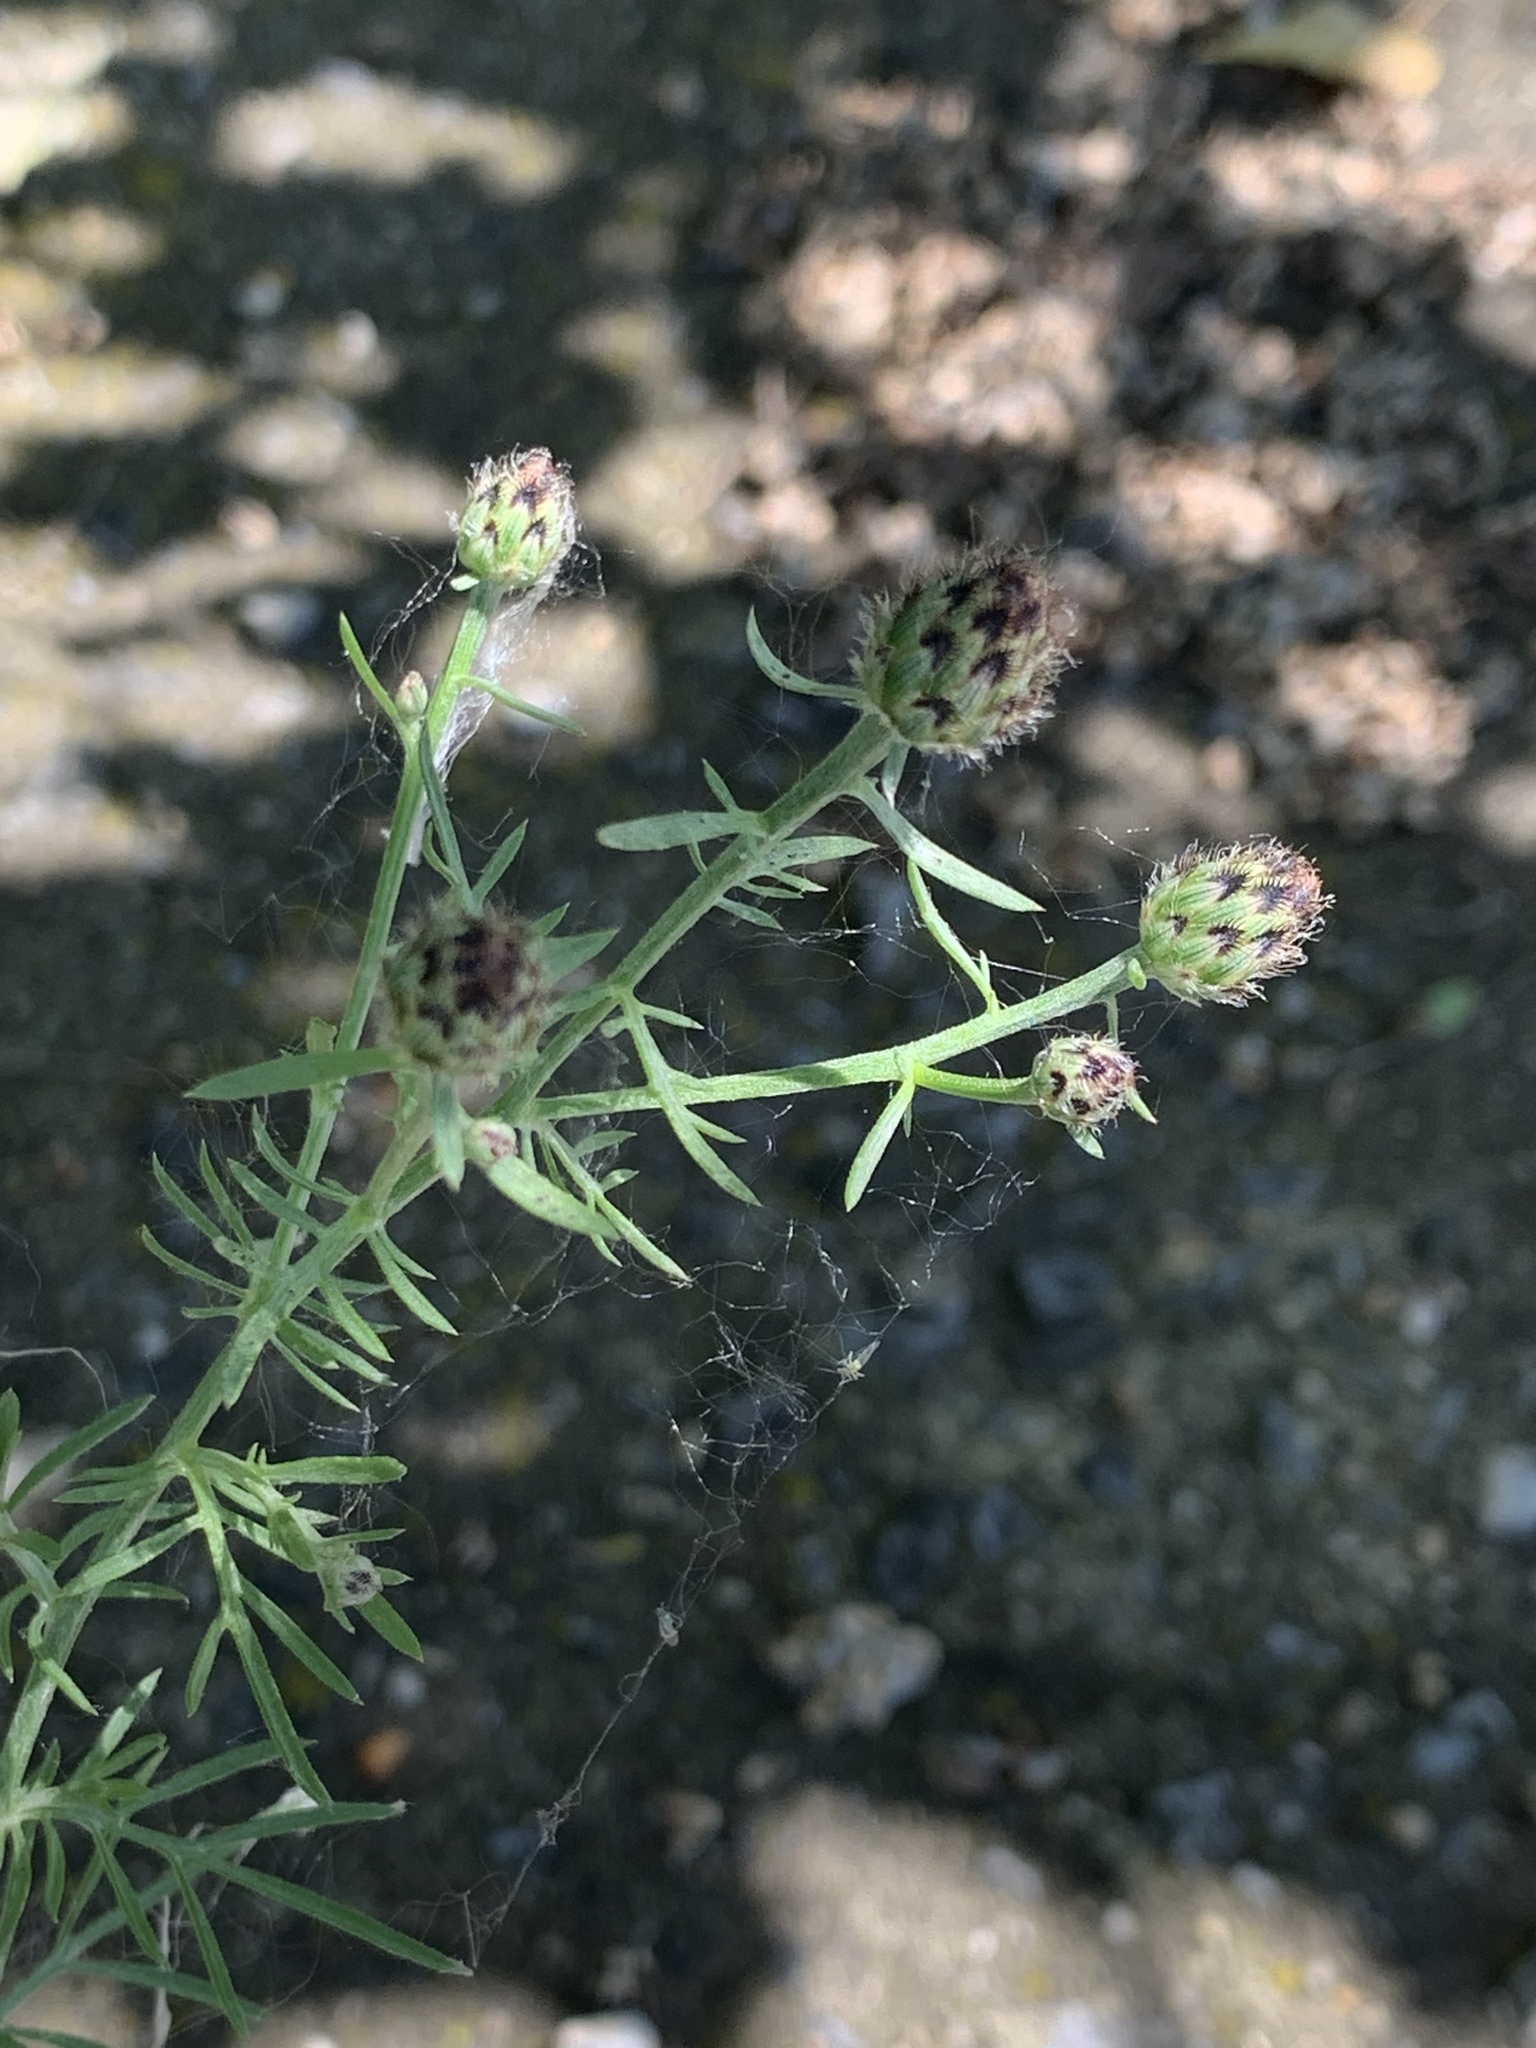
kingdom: Plantae
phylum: Tracheophyta
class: Magnoliopsida
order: Asterales
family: Asteraceae
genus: Centaurea
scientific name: Centaurea stoebe
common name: Spotted knapweed
